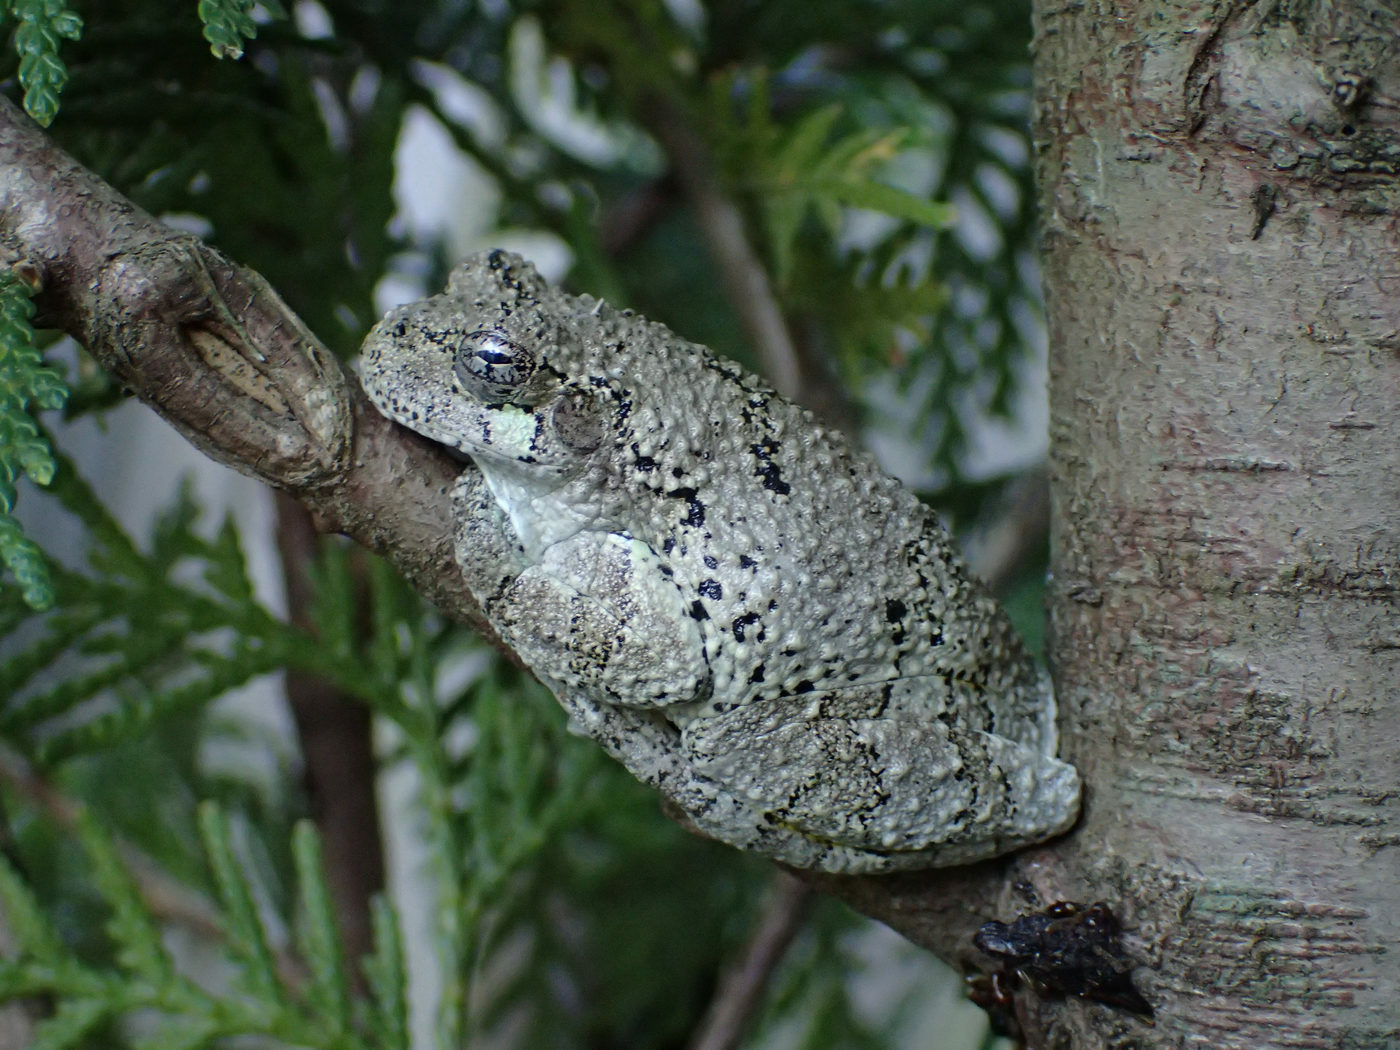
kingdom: Animalia
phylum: Chordata
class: Amphibia
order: Anura
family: Hylidae
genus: Dryophytes
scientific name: Dryophytes chrysoscelis
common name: Cope's gray treefrog
